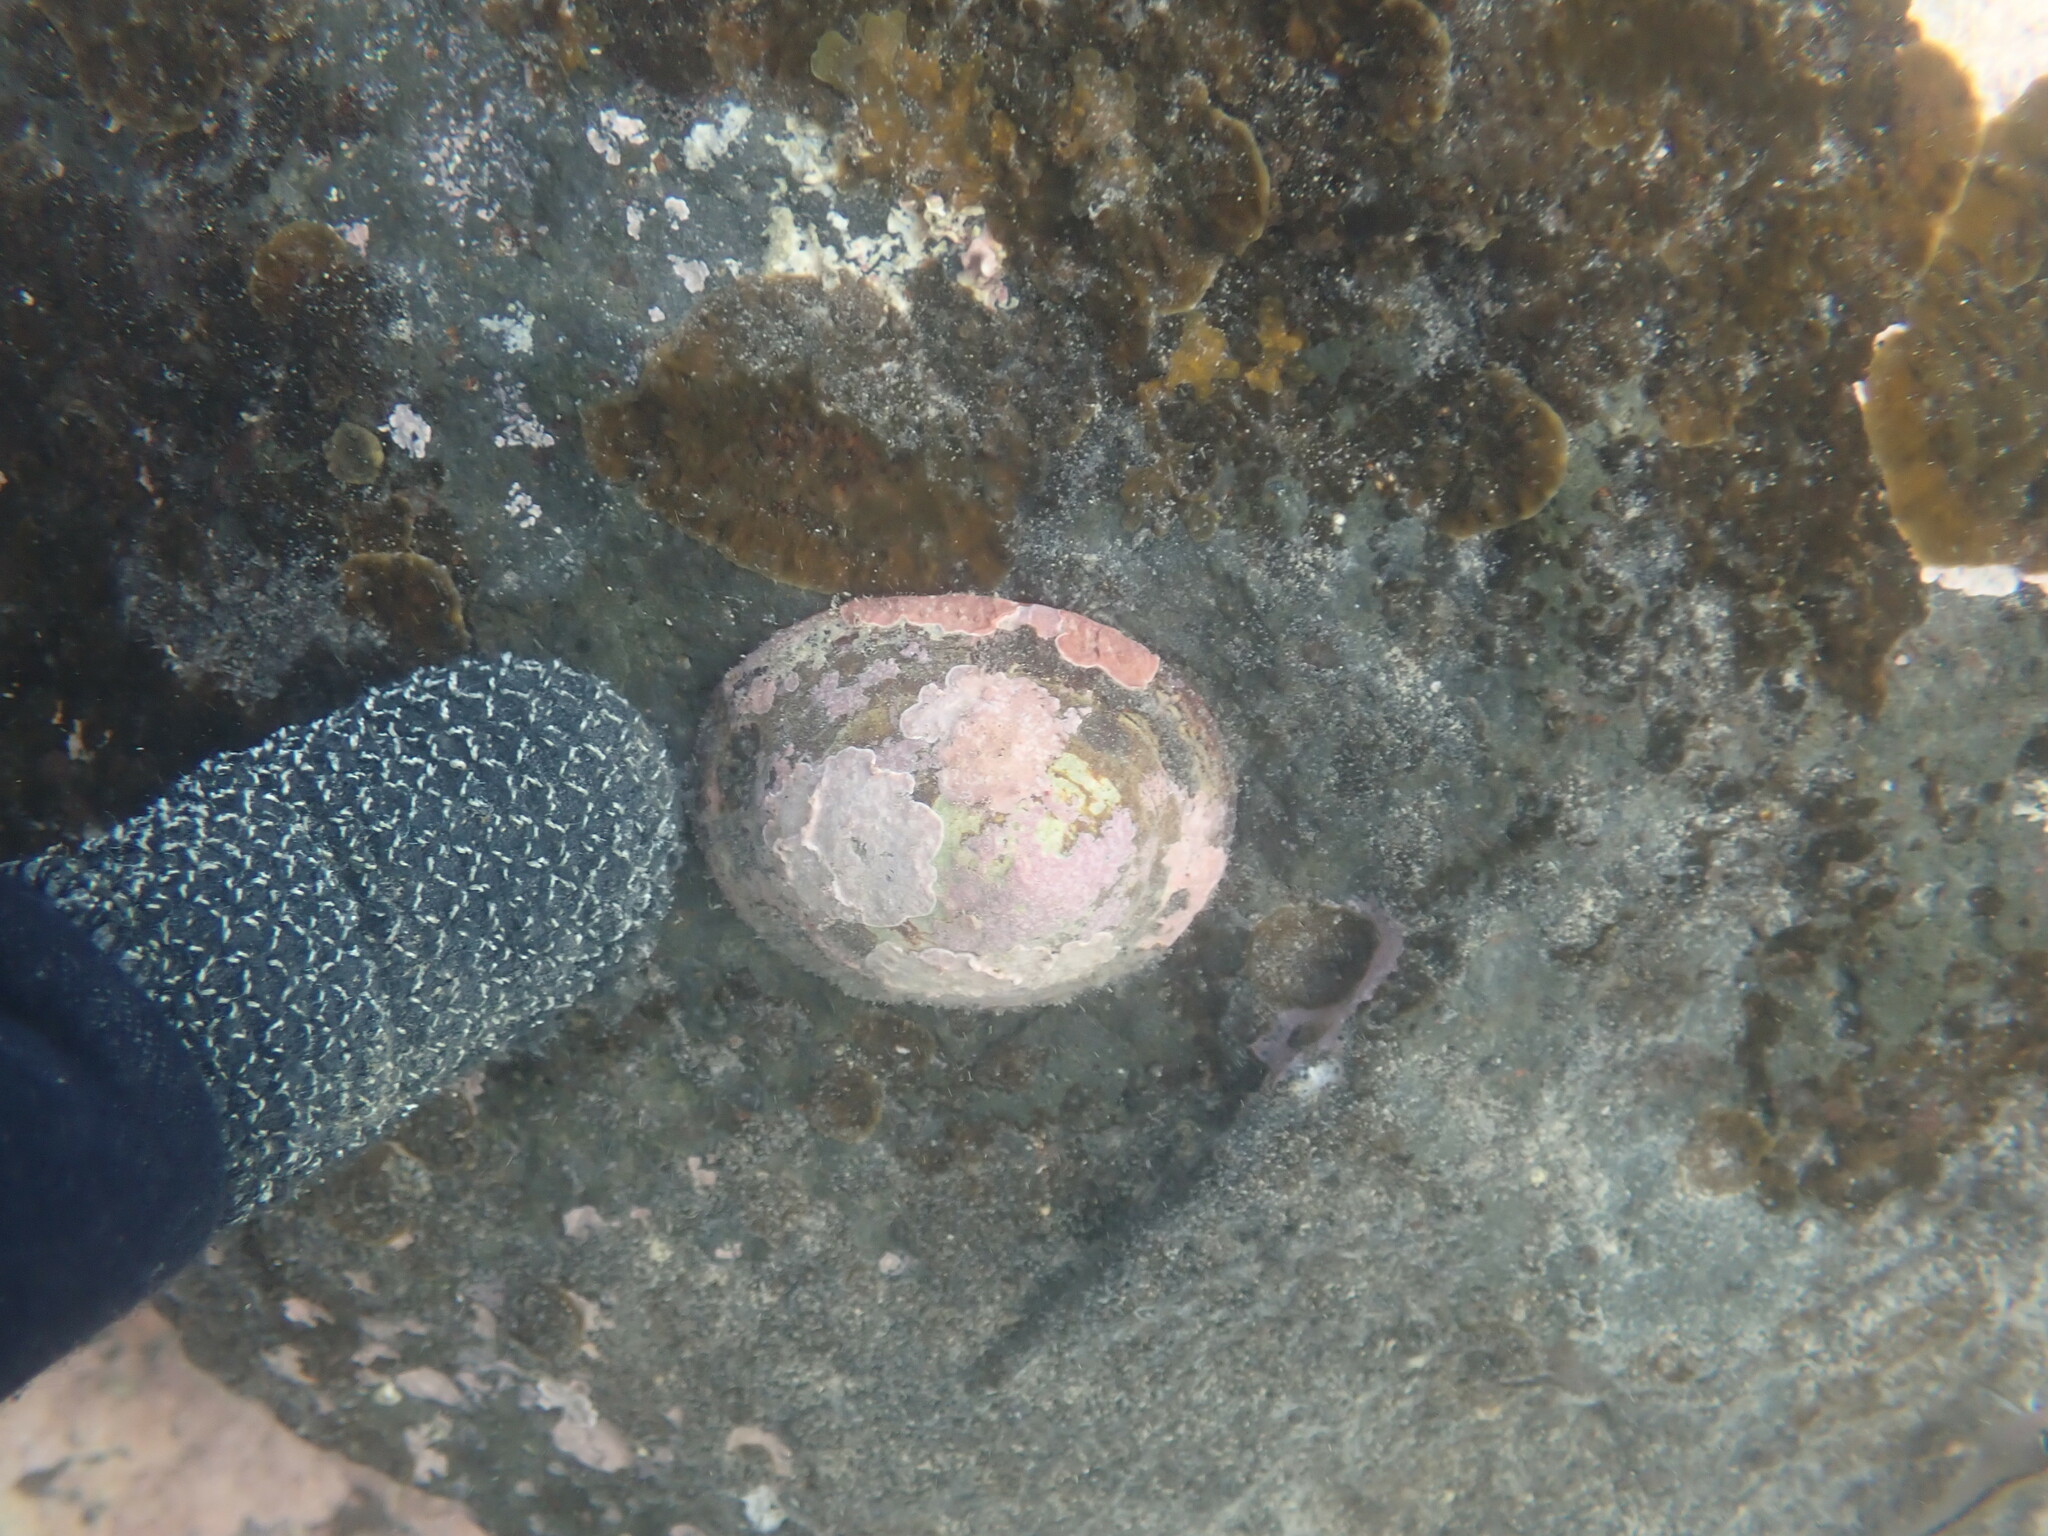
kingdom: Animalia
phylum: Mollusca
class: Gastropoda
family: Nacellidae
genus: Cellana
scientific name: Cellana stellifera
